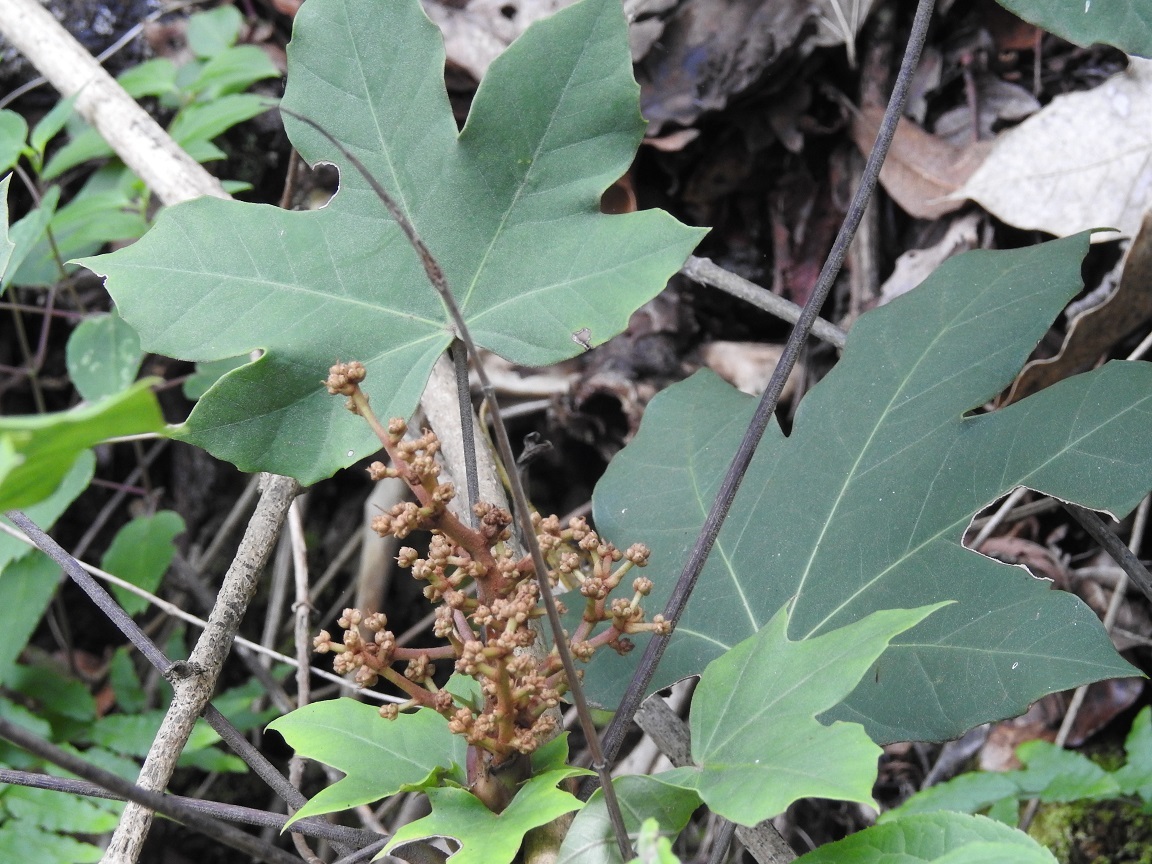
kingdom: Plantae
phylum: Tracheophyta
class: Magnoliopsida
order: Apiales
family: Araliaceae
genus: Oreopanax
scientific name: Oreopanax peltatus
